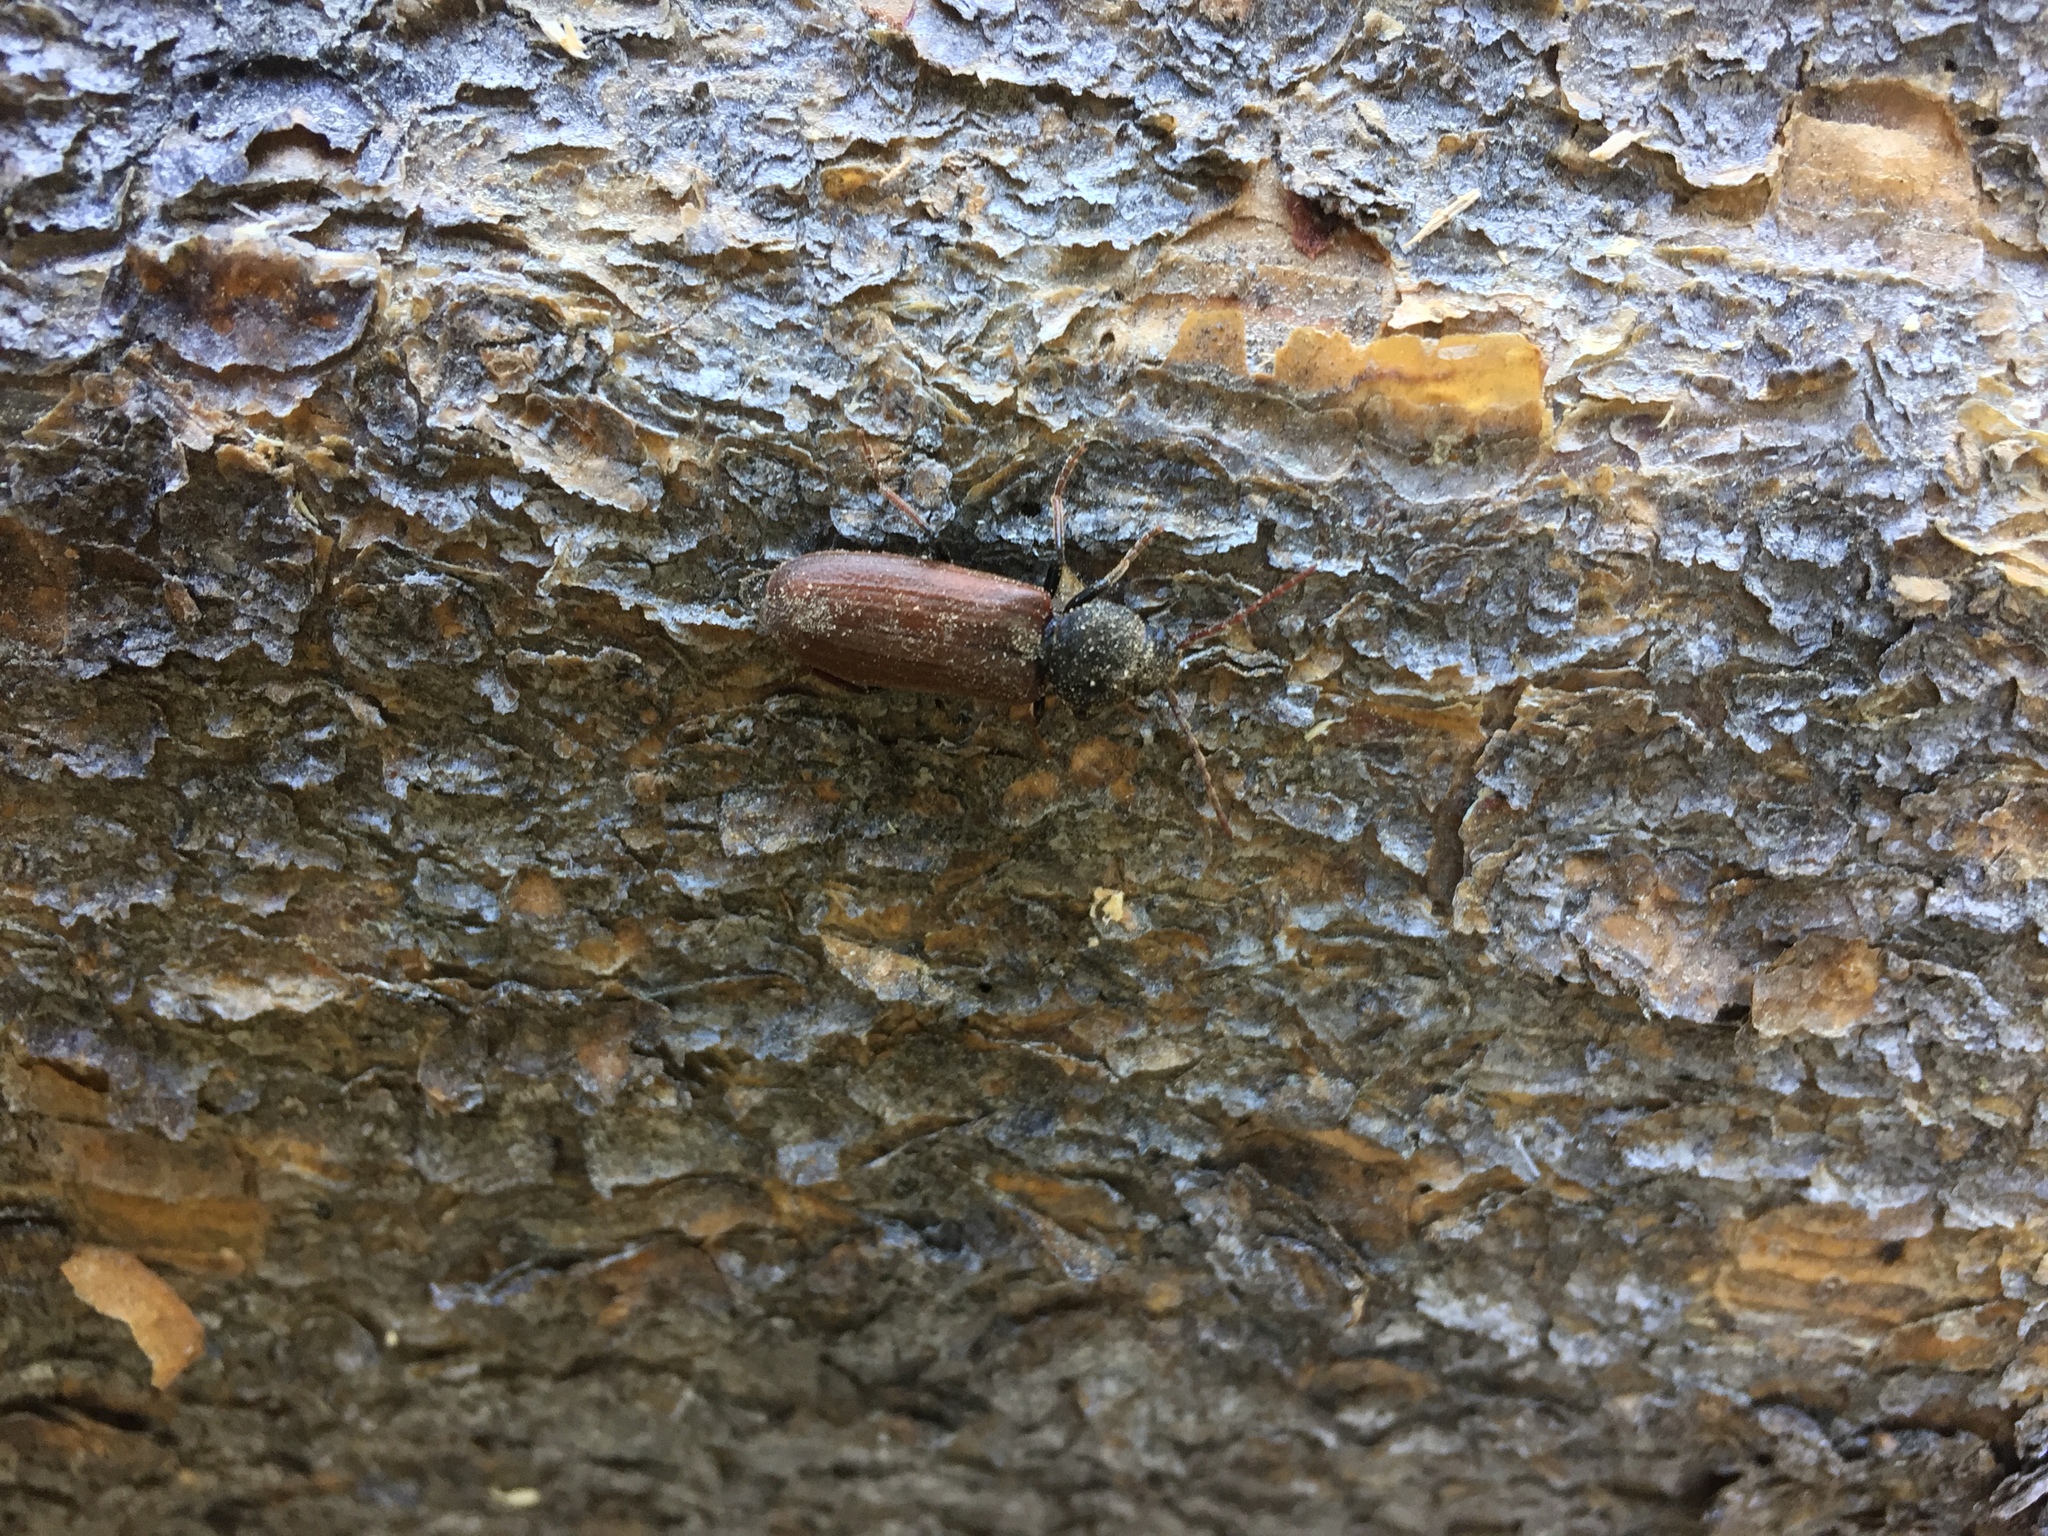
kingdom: Animalia
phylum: Arthropoda
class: Insecta
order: Coleoptera
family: Cerambycidae
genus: Asemum
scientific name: Asemum striatum
